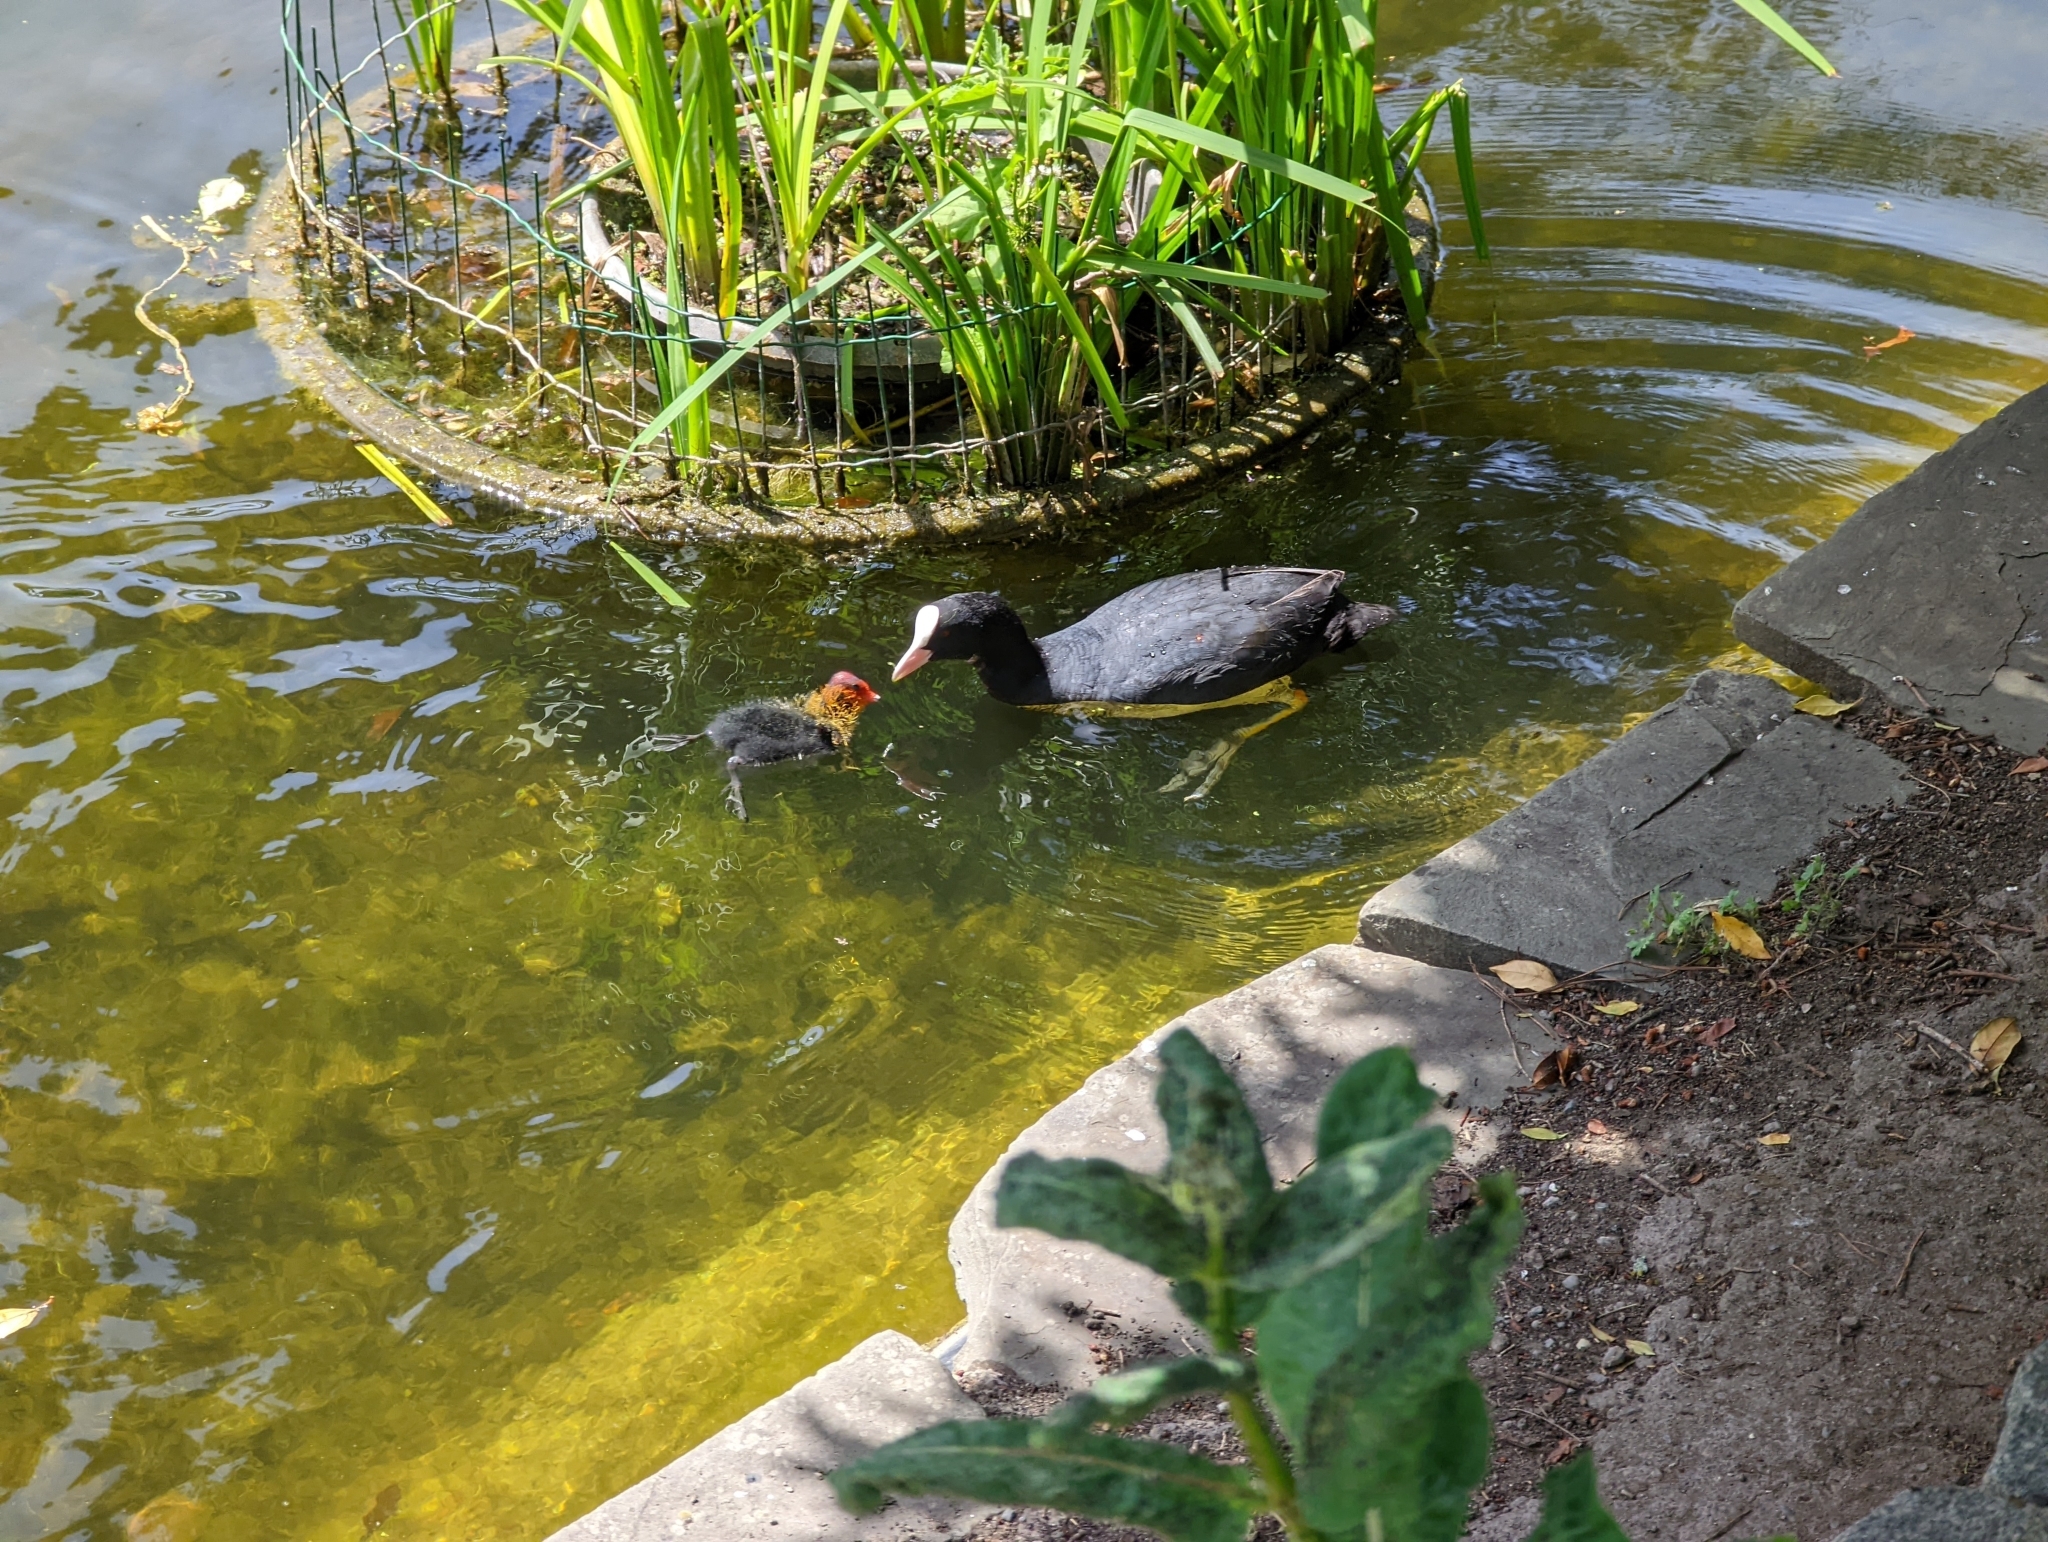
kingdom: Animalia
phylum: Chordata
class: Aves
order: Gruiformes
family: Rallidae
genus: Fulica
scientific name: Fulica atra
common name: Eurasian coot
